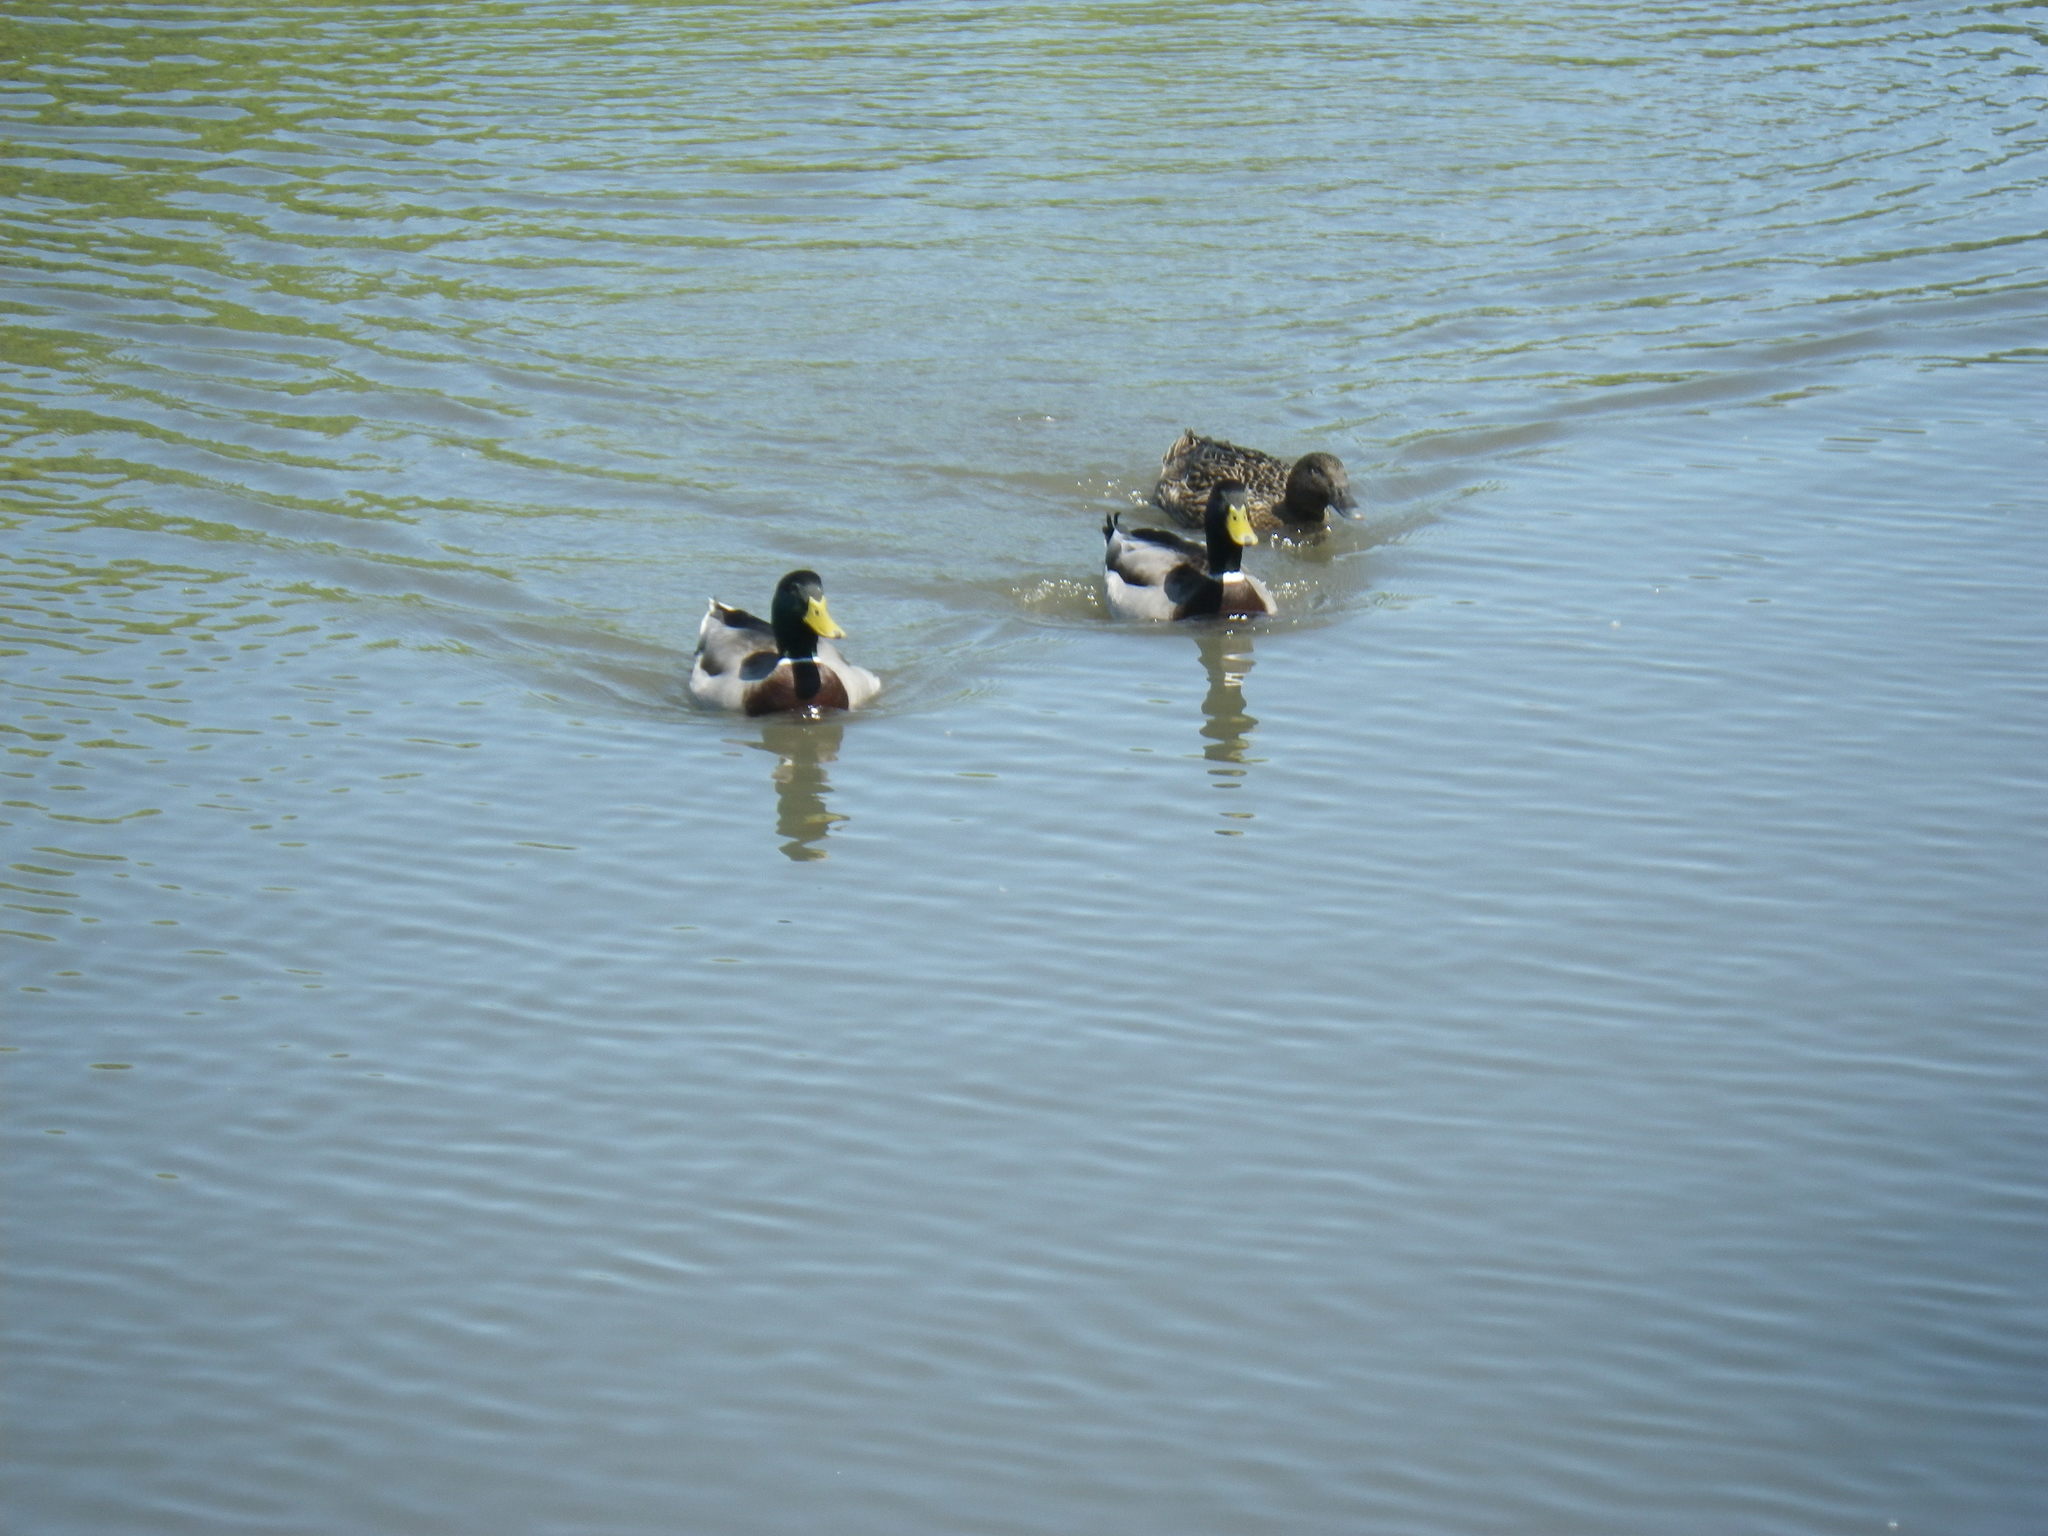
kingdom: Animalia
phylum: Chordata
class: Aves
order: Anseriformes
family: Anatidae
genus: Anas
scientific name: Anas platyrhynchos
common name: Mallard
